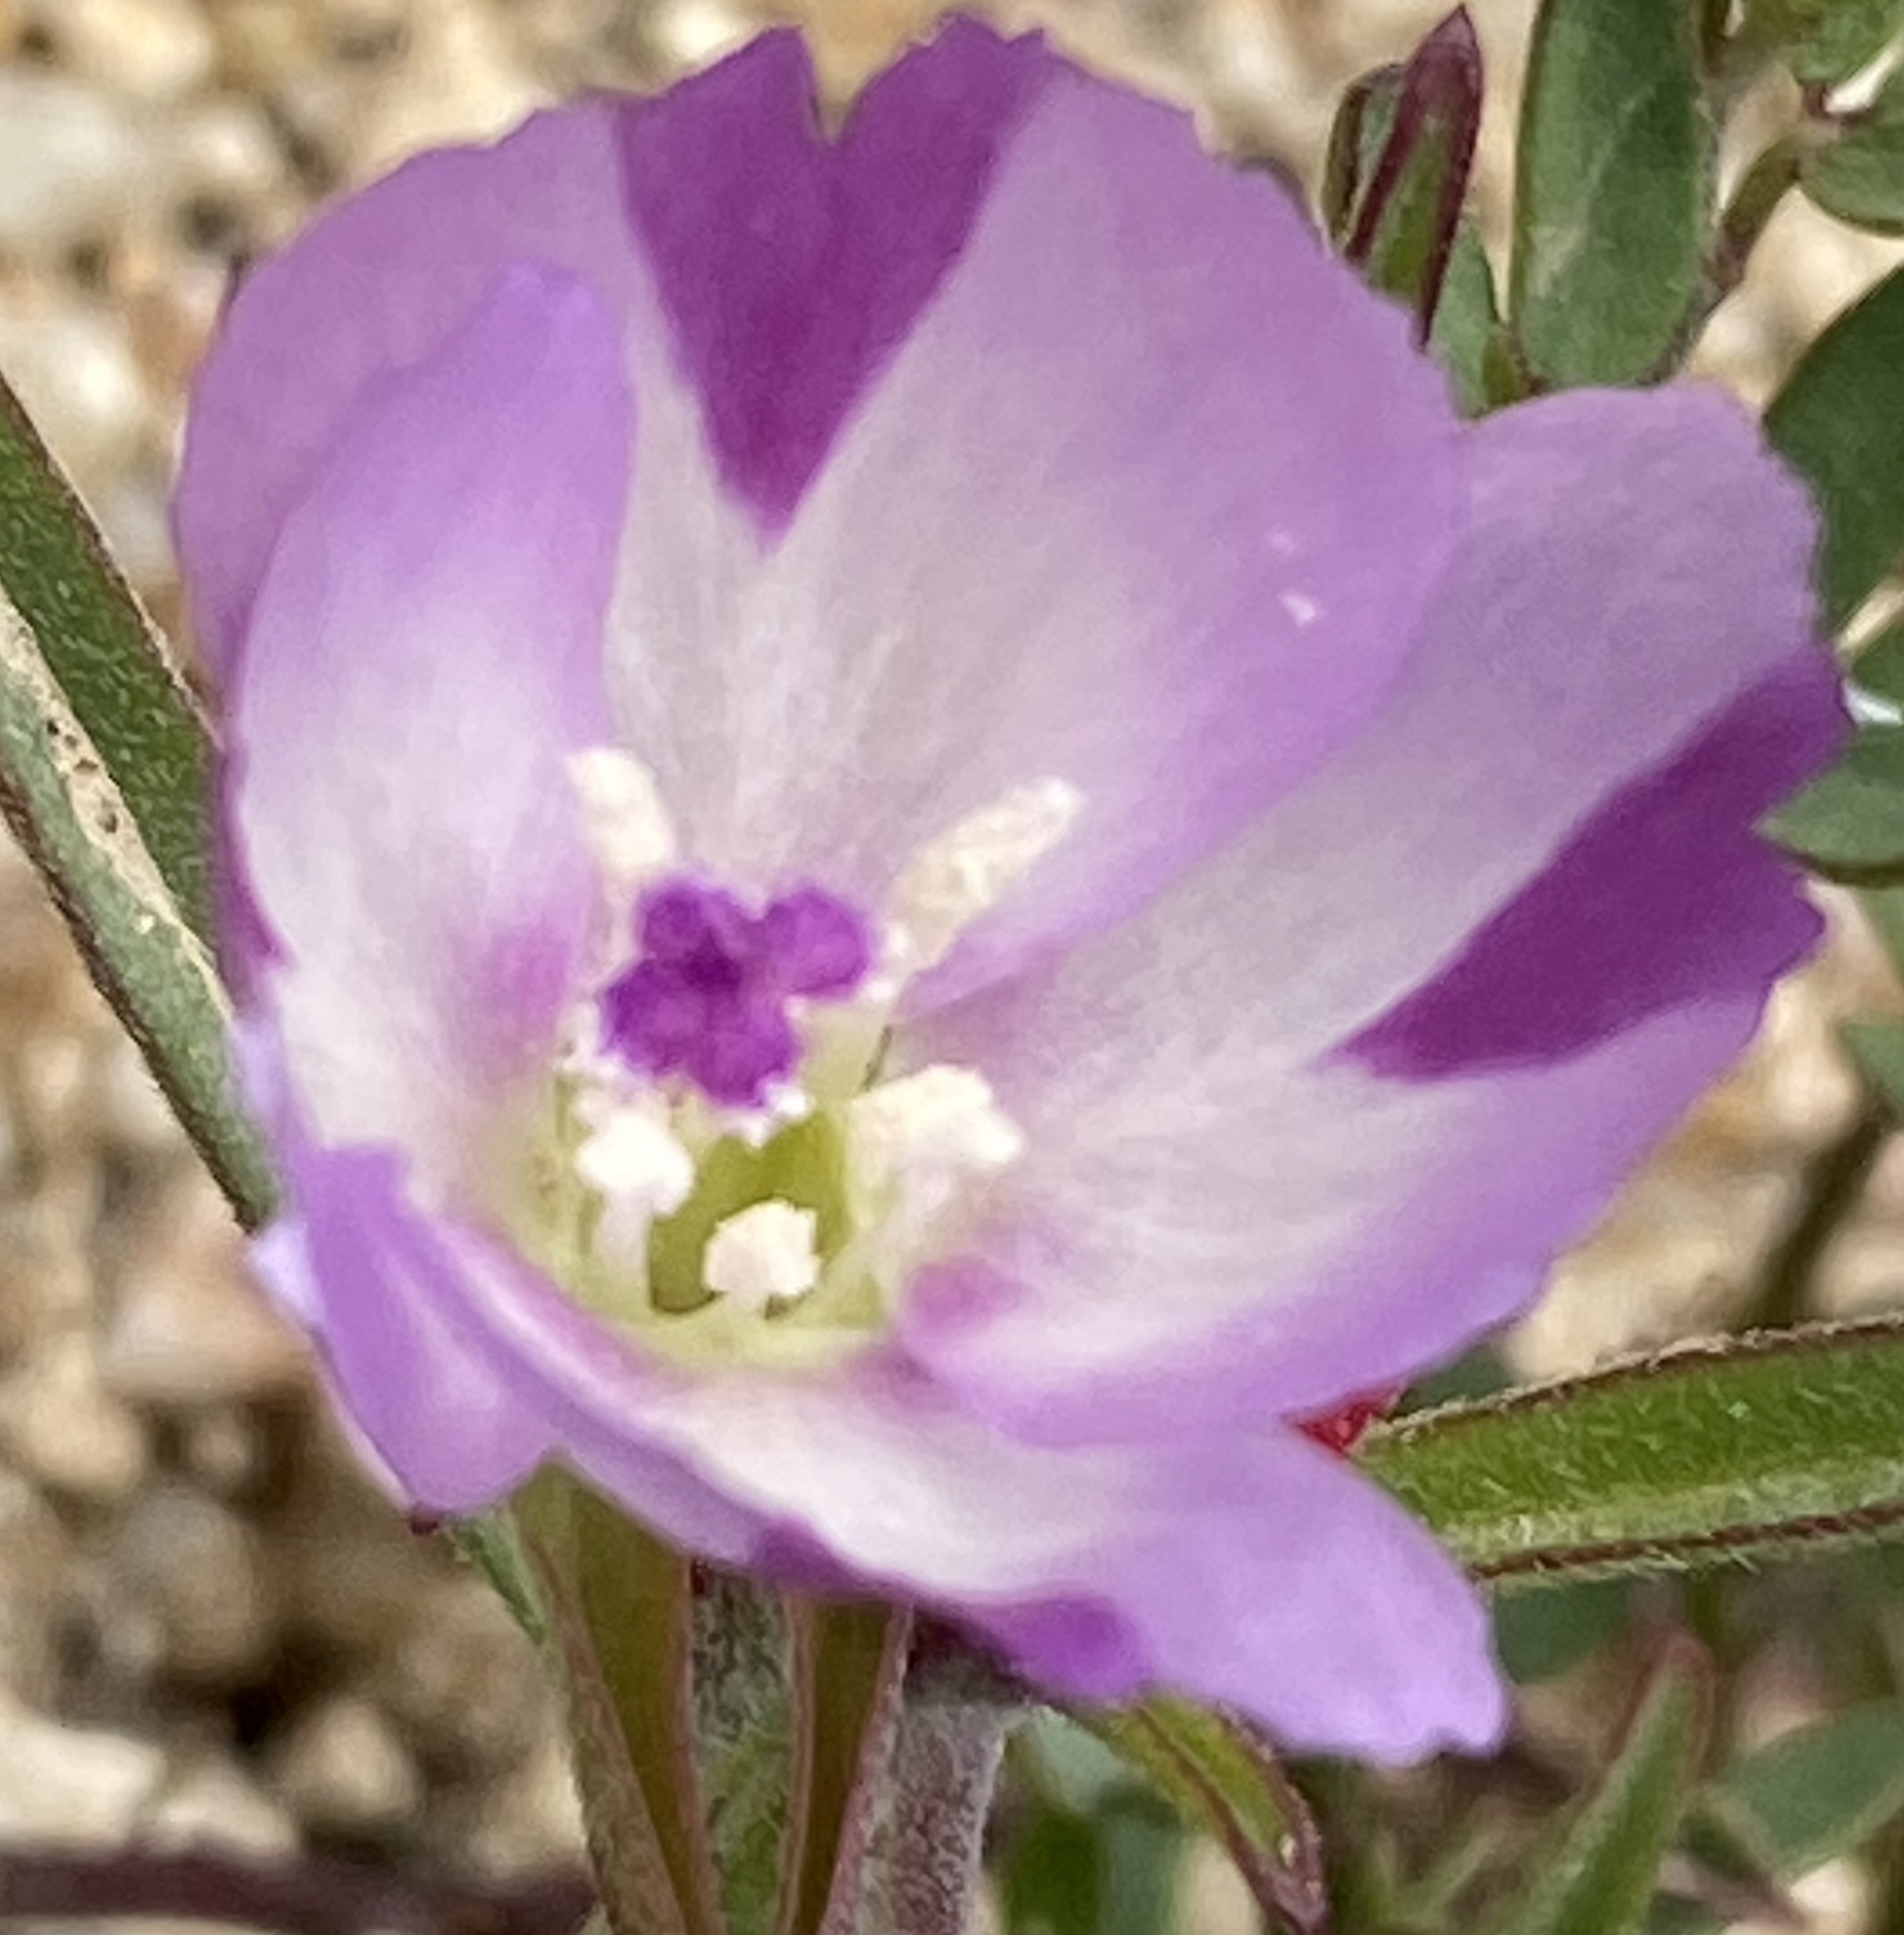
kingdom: Plantae
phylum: Tracheophyta
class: Magnoliopsida
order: Myrtales
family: Onagraceae
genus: Clarkia
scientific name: Clarkia purpurea
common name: Purple clarkia
